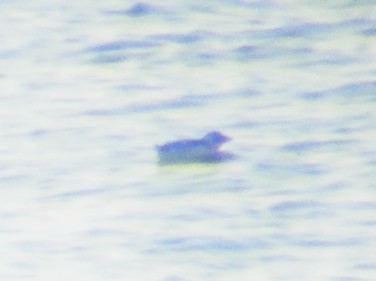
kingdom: Animalia
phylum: Chordata
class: Aves
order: Charadriiformes
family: Alcidae
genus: Alle
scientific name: Alle alle
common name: Little auk
